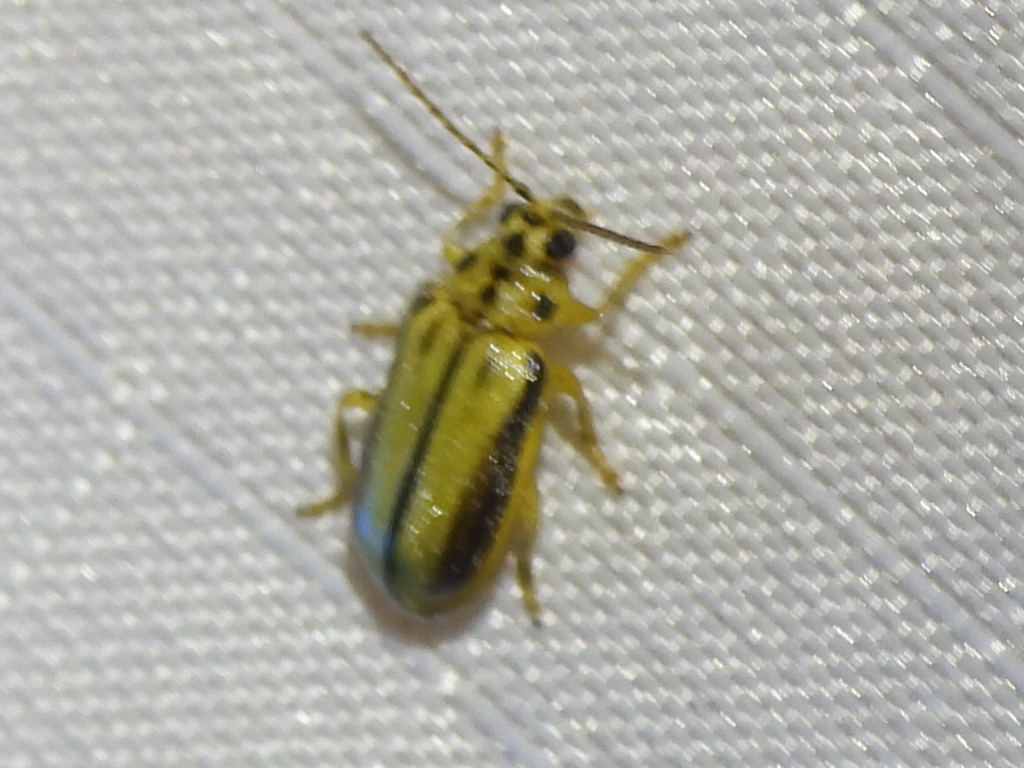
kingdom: Animalia
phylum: Arthropoda
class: Insecta
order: Coleoptera
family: Chrysomelidae
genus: Xanthogaleruca
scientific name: Xanthogaleruca luteola
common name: Elm leaf beetle
